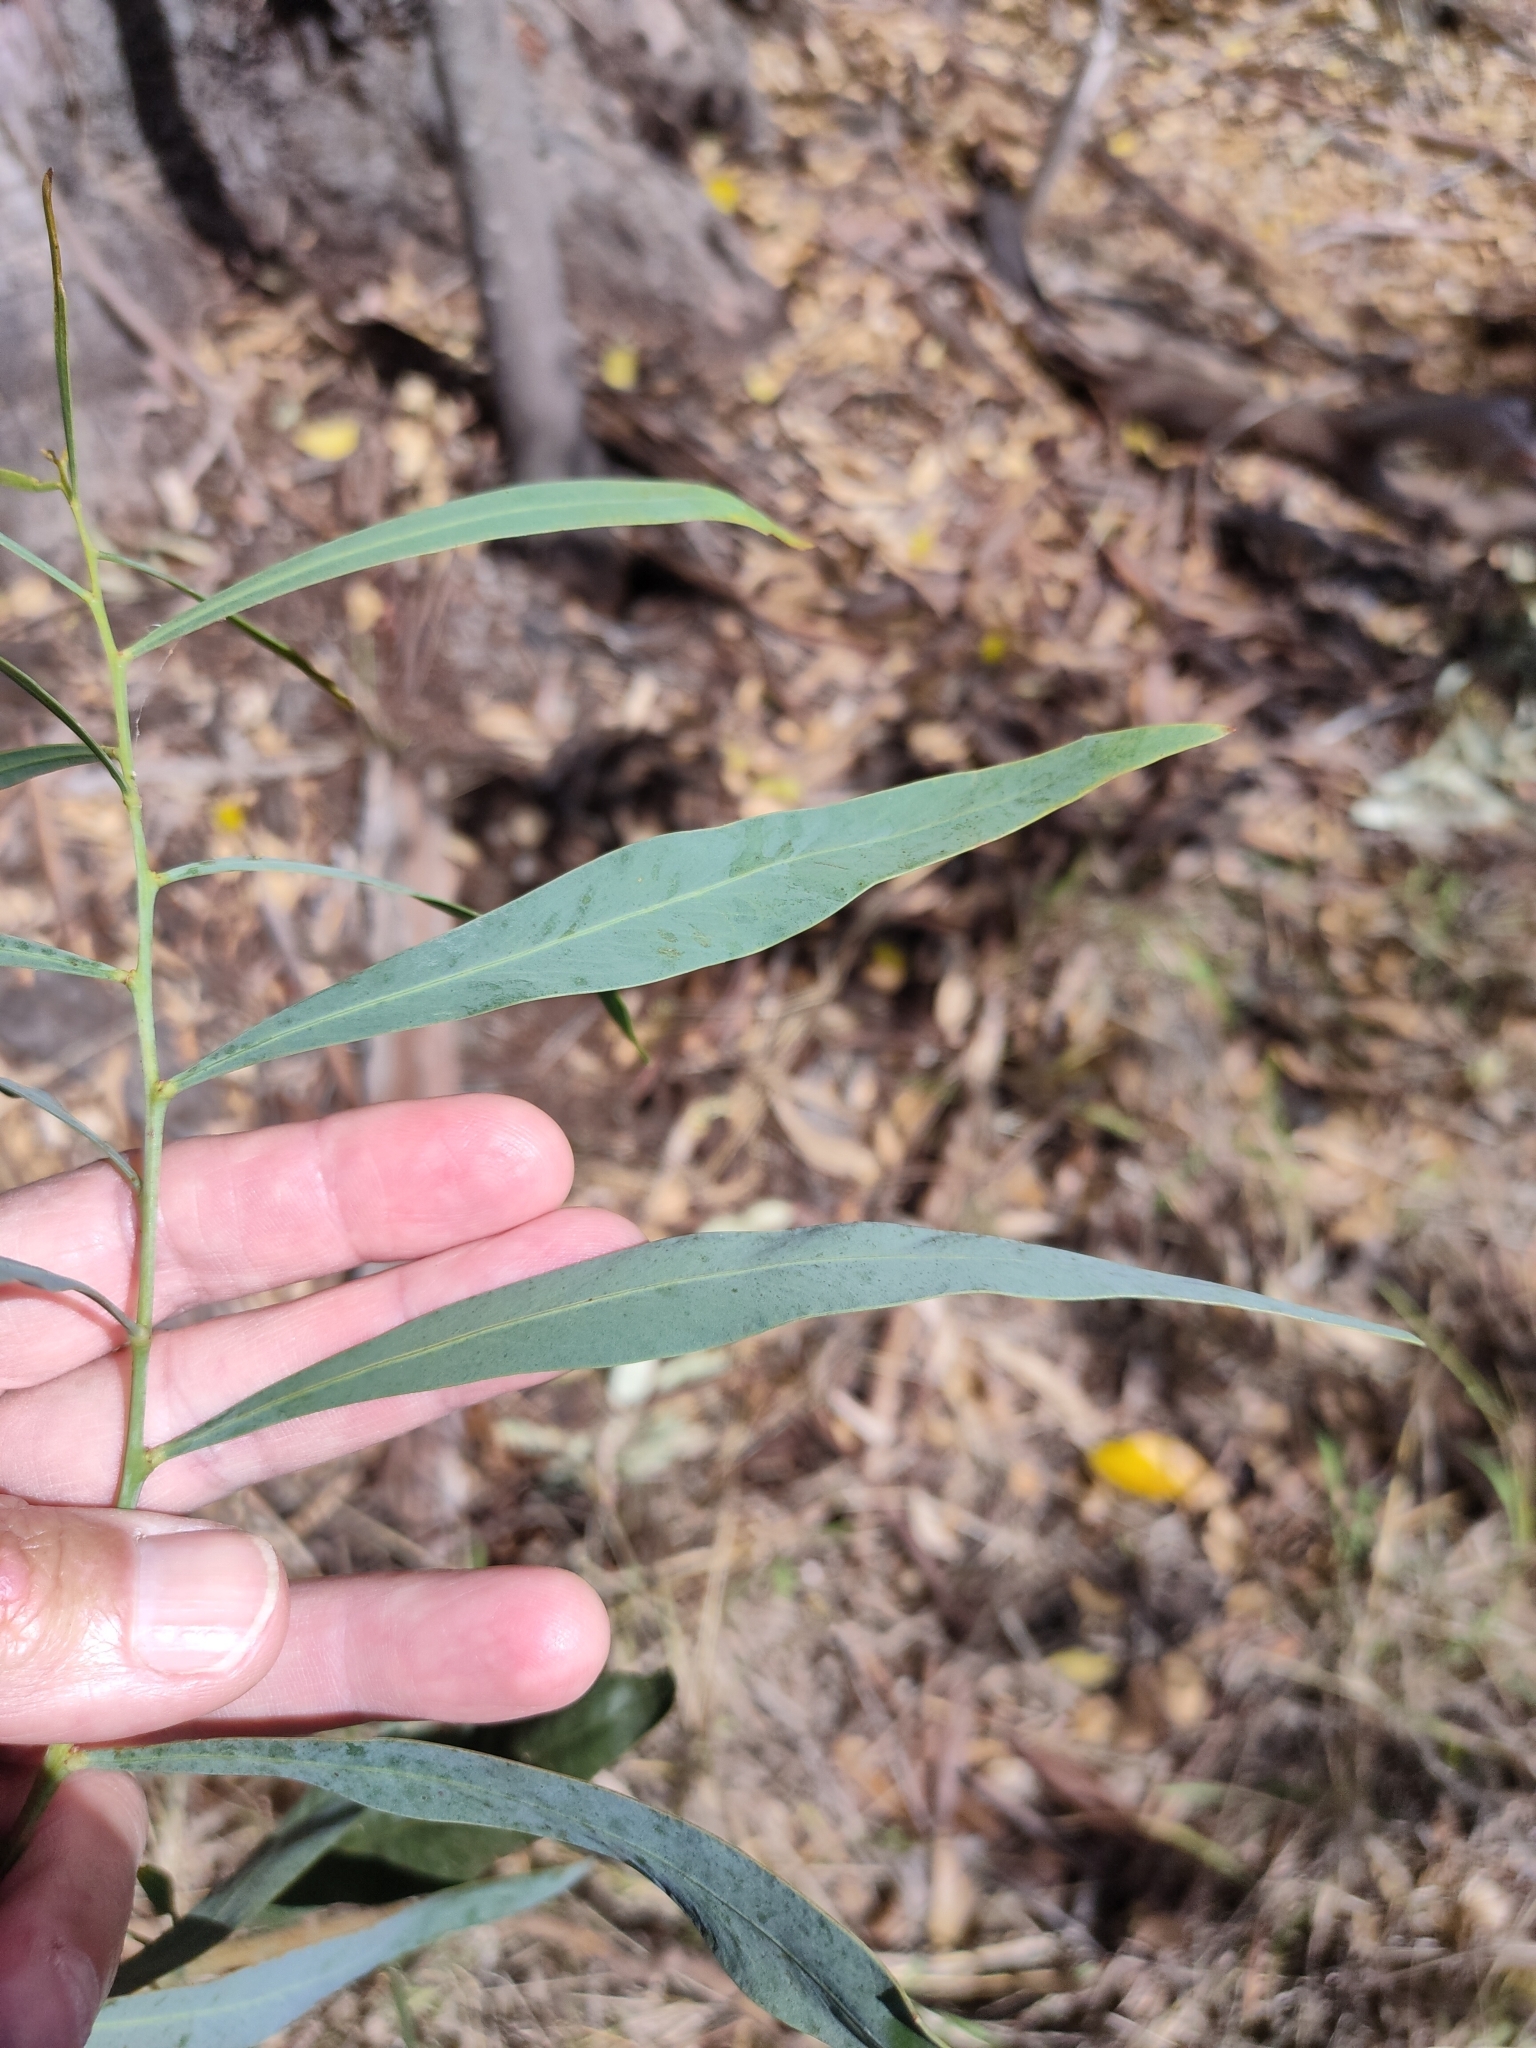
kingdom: Plantae
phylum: Tracheophyta
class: Magnoliopsida
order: Fabales
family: Fabaceae
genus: Acacia
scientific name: Acacia salicina
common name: Broughton willow wattle
